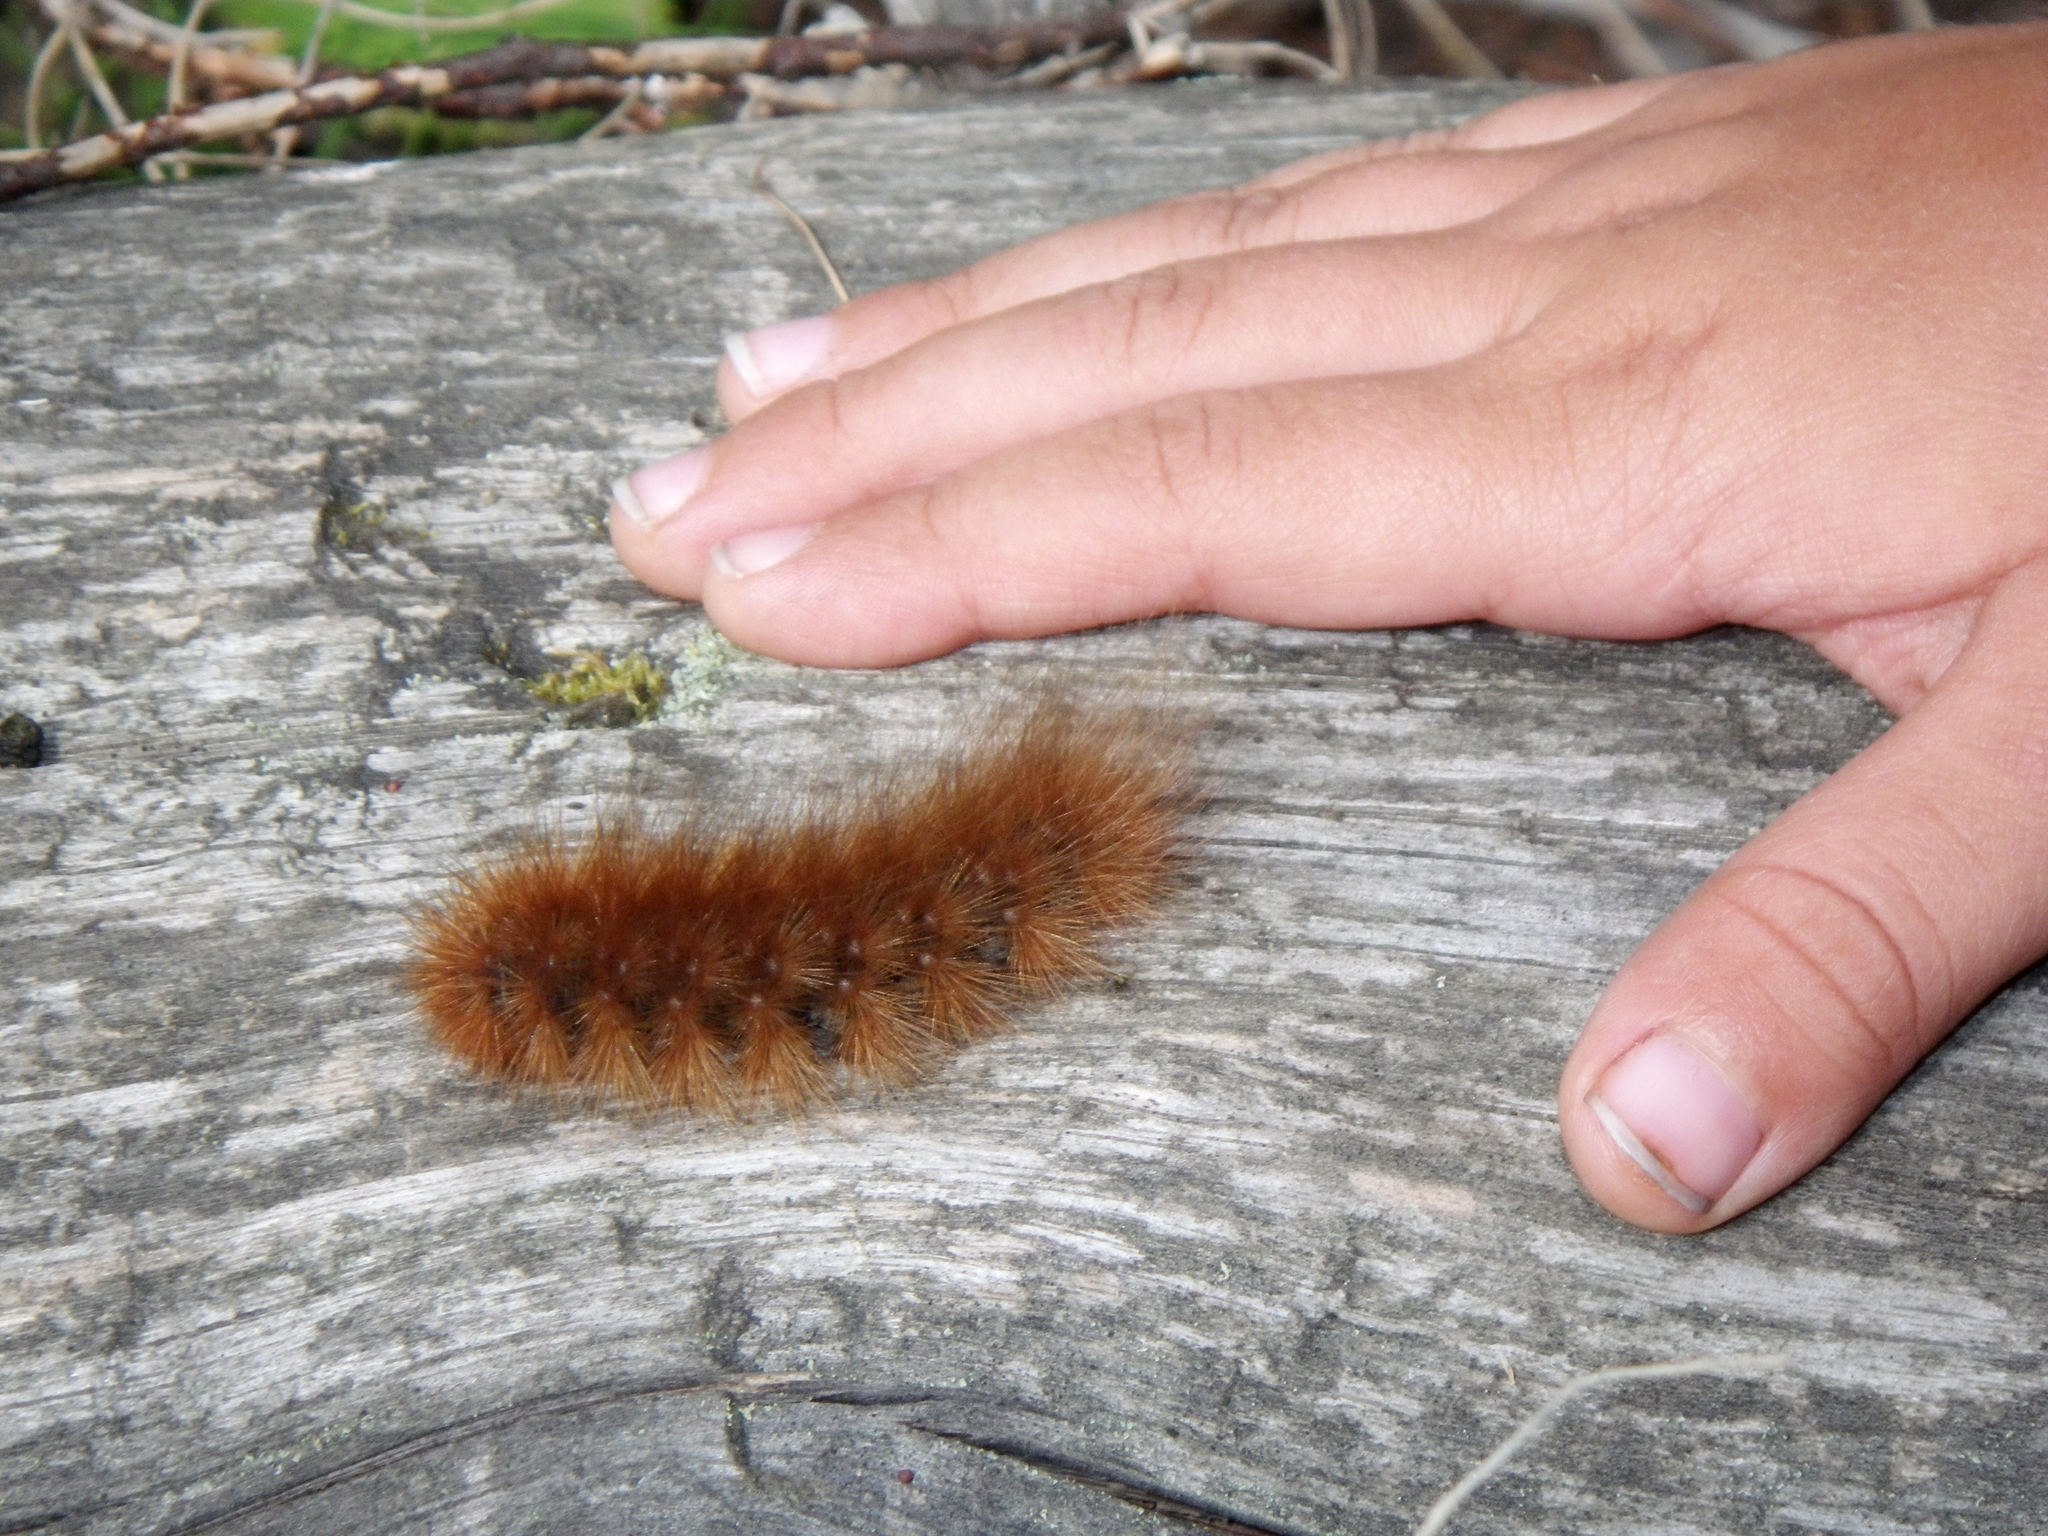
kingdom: Animalia
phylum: Arthropoda
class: Insecta
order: Lepidoptera
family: Erebidae
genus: Pericallia
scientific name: Pericallia matronula
